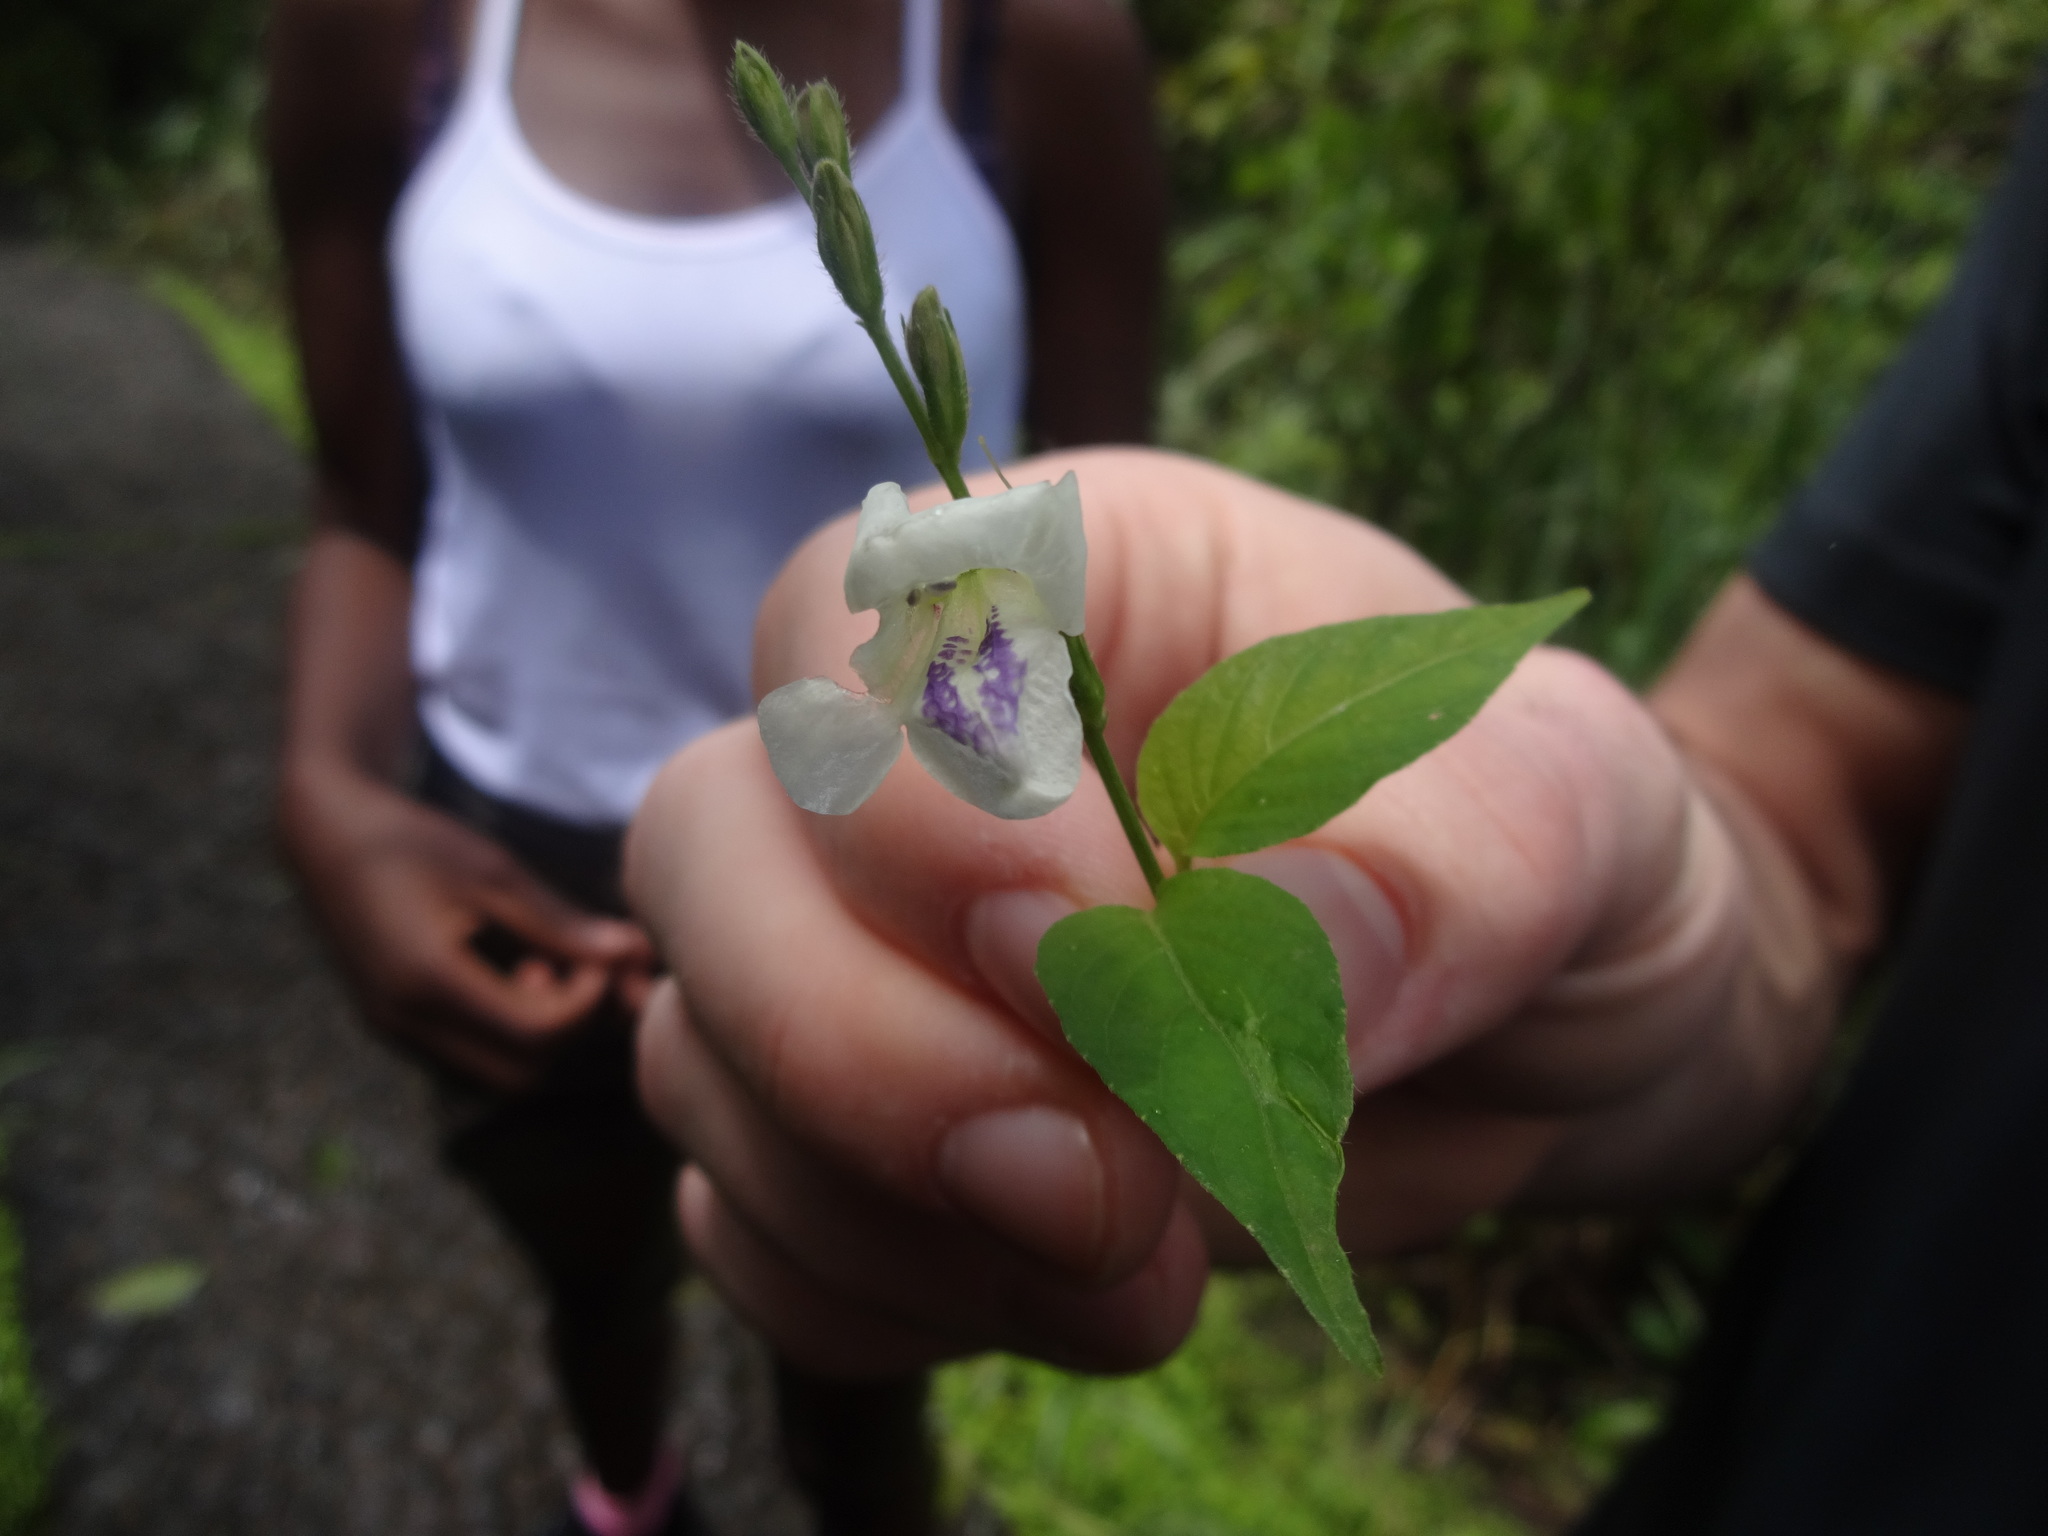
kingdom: Plantae
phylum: Tracheophyta
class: Magnoliopsida
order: Lamiales
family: Acanthaceae
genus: Asystasia
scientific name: Asystasia intrusa
